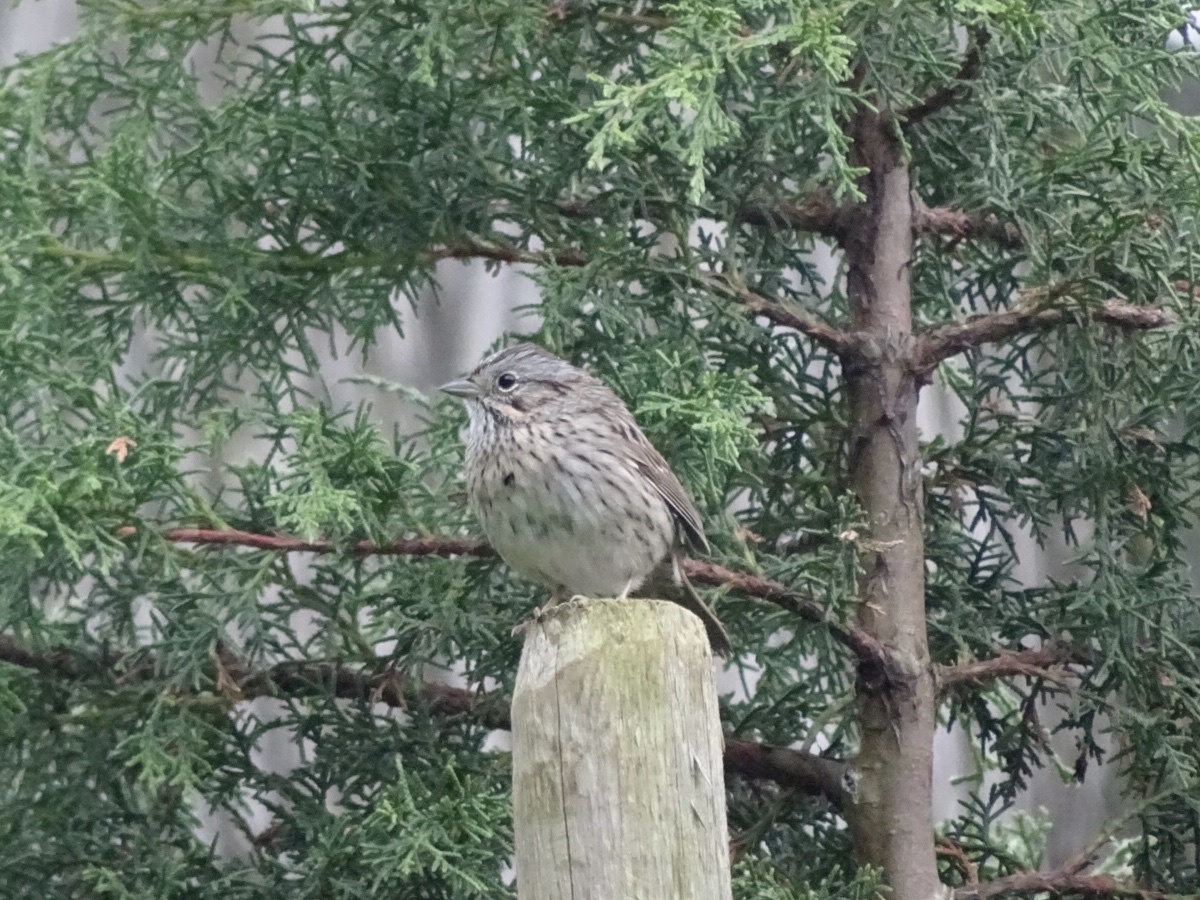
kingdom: Animalia
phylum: Chordata
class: Aves
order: Passeriformes
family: Passerellidae
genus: Melospiza
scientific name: Melospiza lincolnii
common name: Lincoln's sparrow
